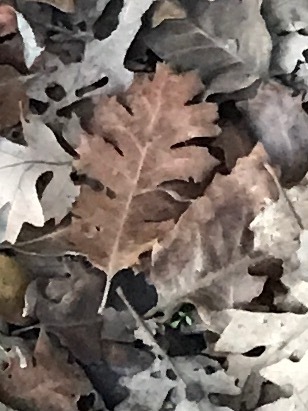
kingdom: Plantae
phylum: Tracheophyta
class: Magnoliopsida
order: Fagales
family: Fagaceae
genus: Quercus
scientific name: Quercus kelloggii
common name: California black oak
